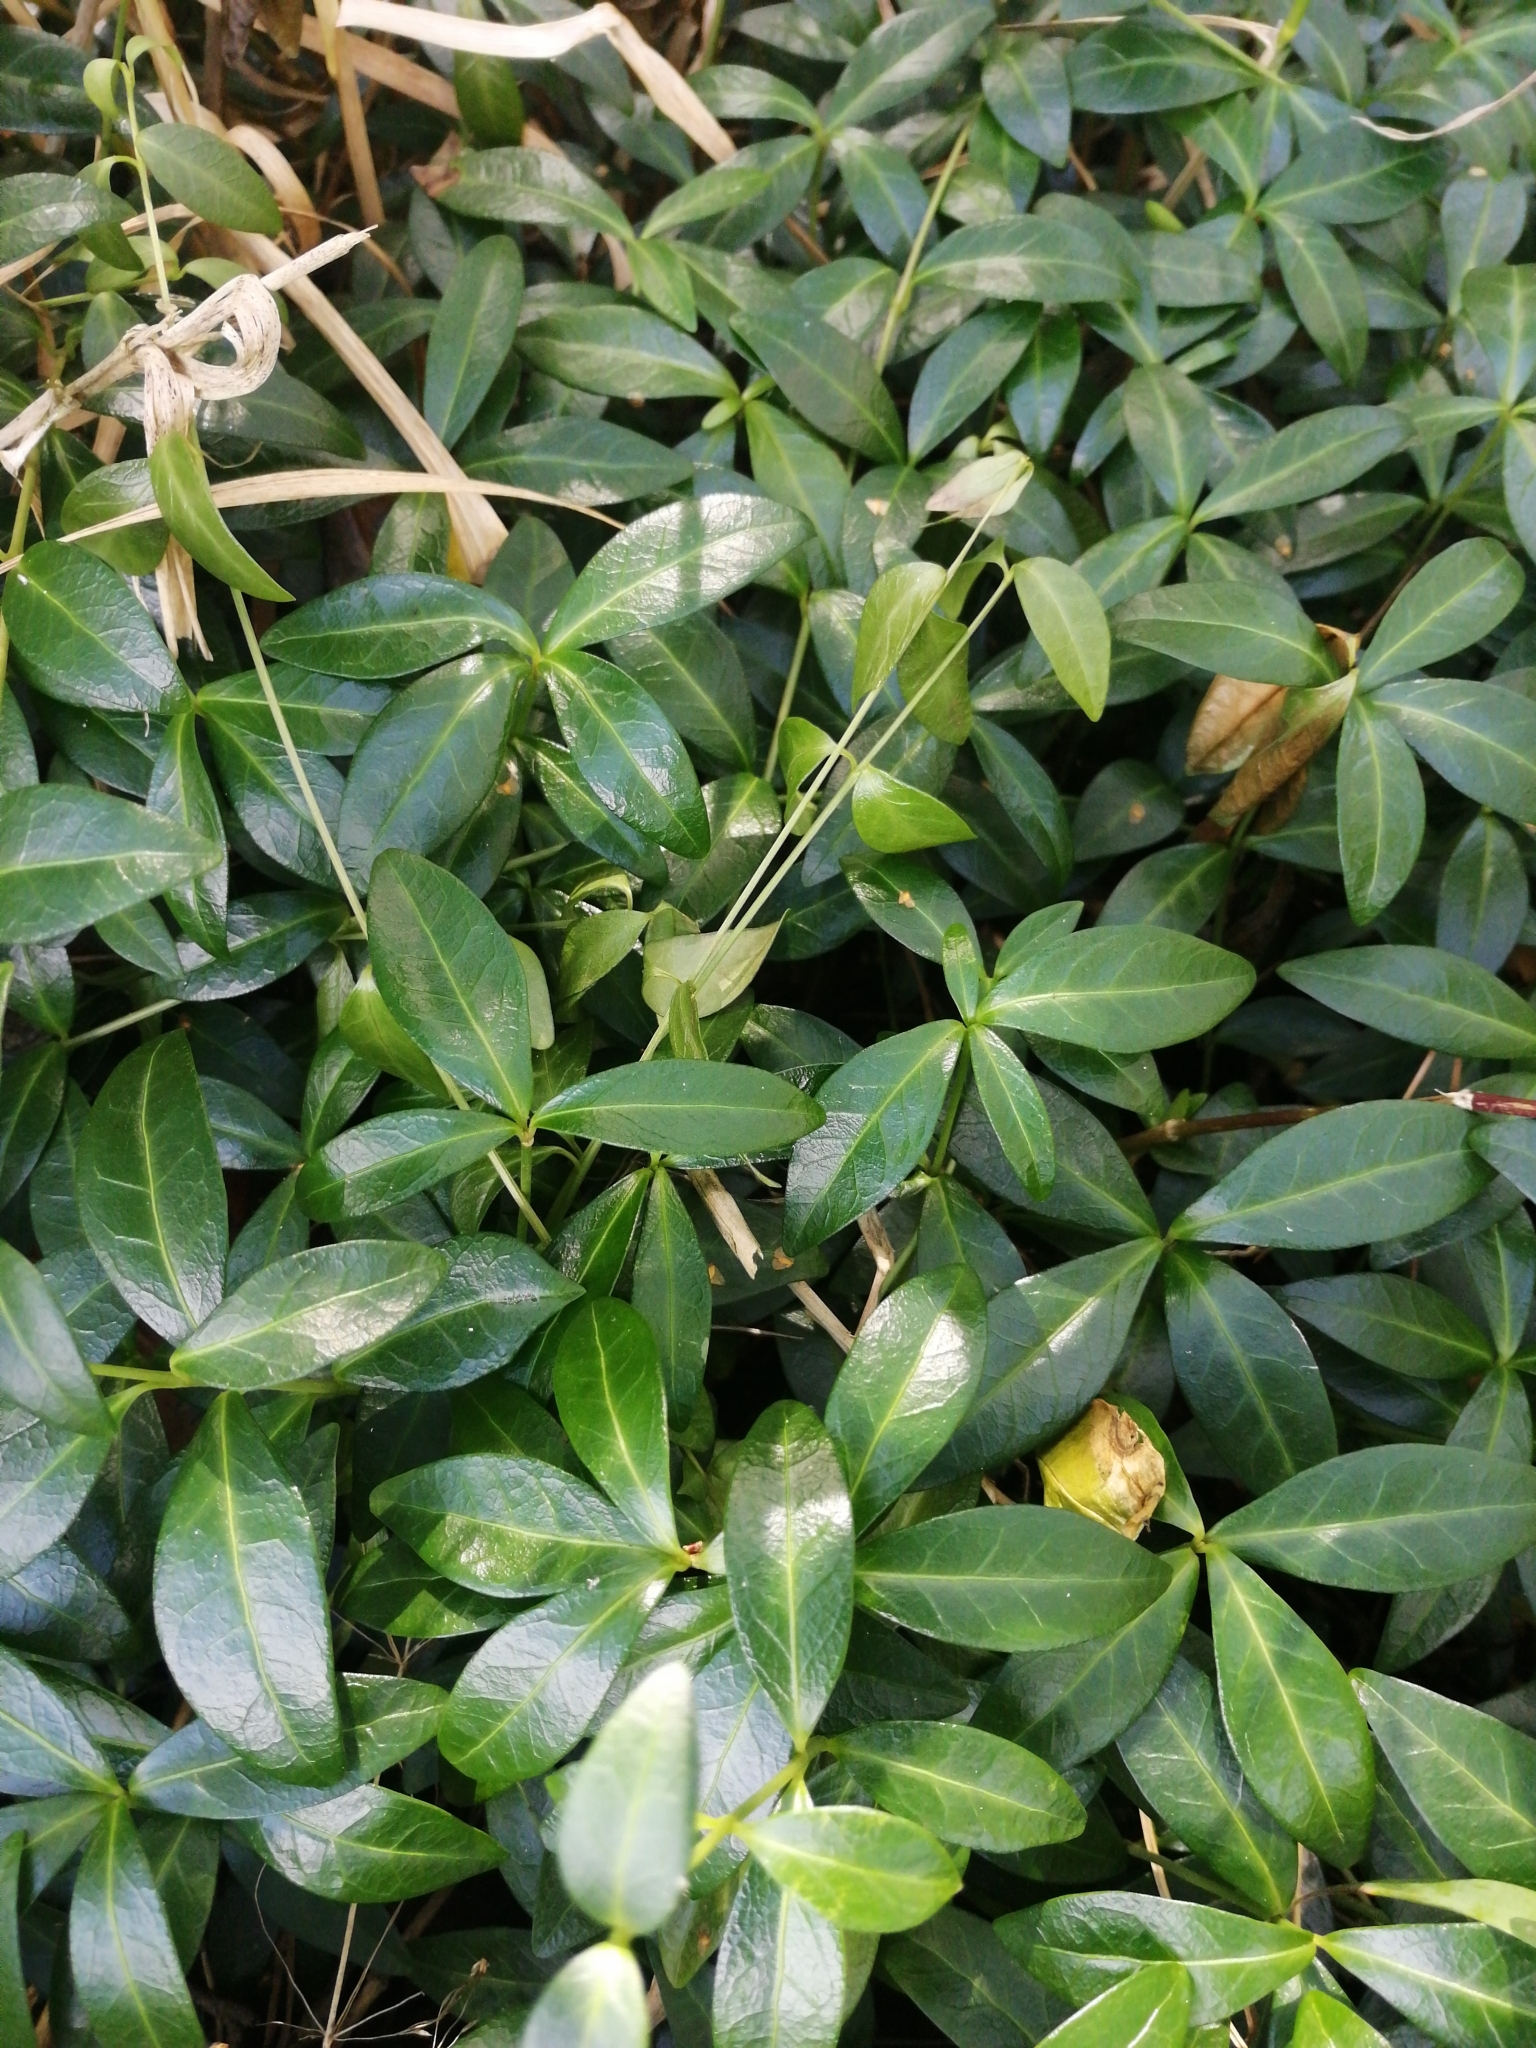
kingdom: Plantae
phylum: Tracheophyta
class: Magnoliopsida
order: Gentianales
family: Apocynaceae
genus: Vinca
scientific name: Vinca minor
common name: Lesser periwinkle
